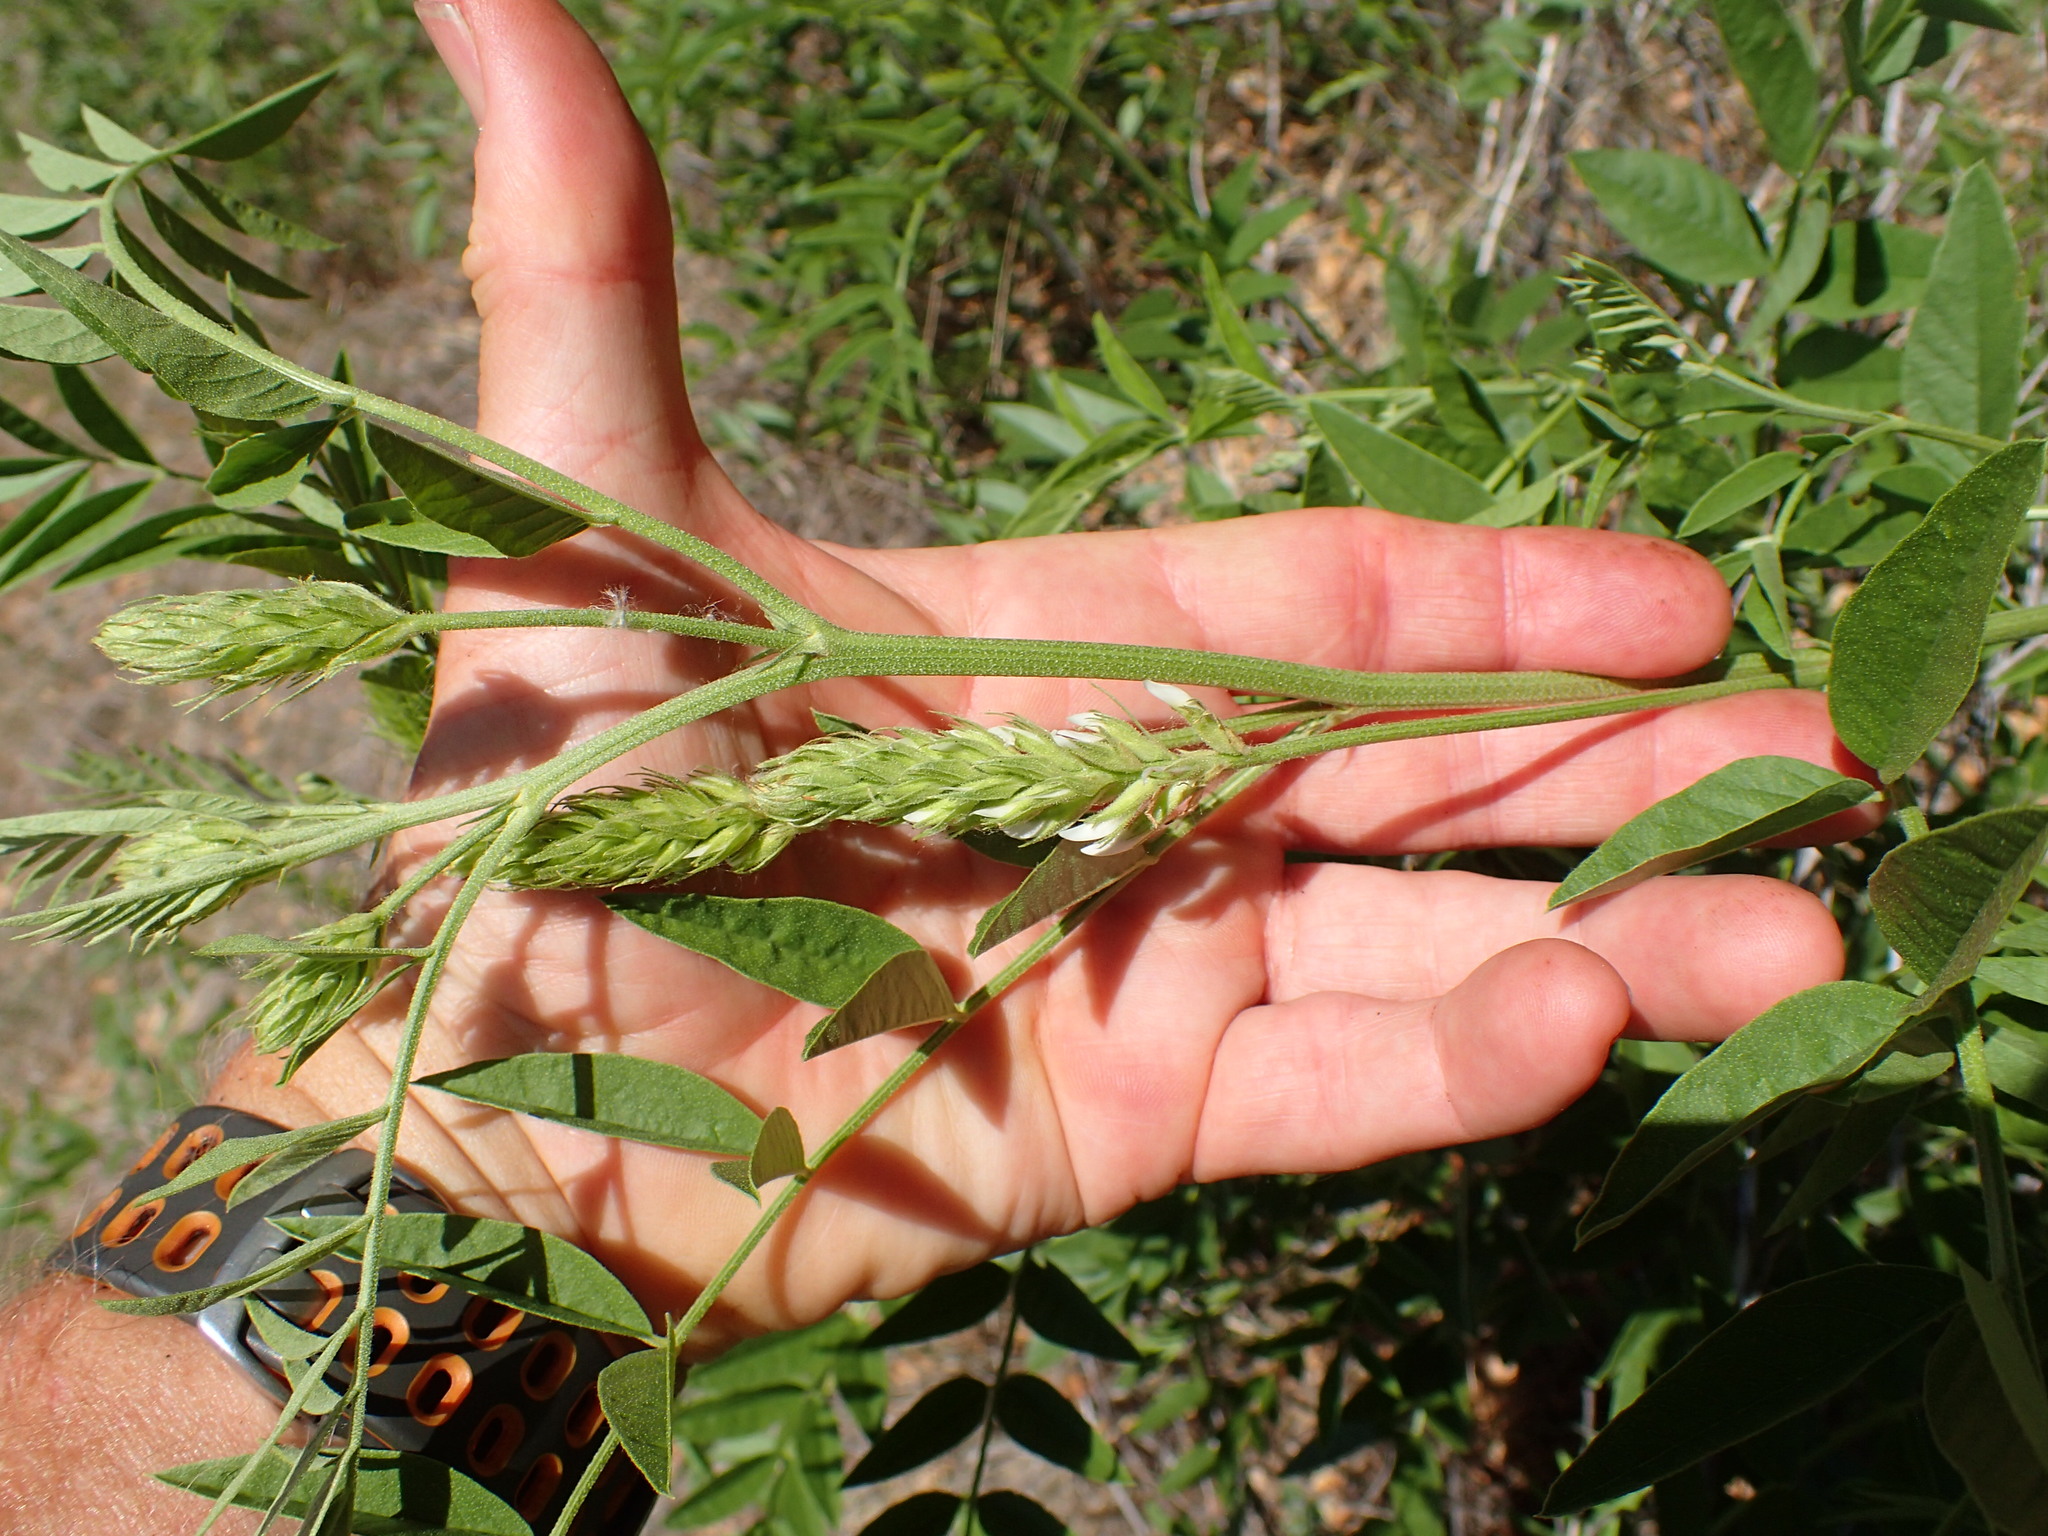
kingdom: Plantae
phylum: Tracheophyta
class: Magnoliopsida
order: Fabales
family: Fabaceae
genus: Glycyrrhiza
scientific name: Glycyrrhiza lepidota
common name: American liquorice
